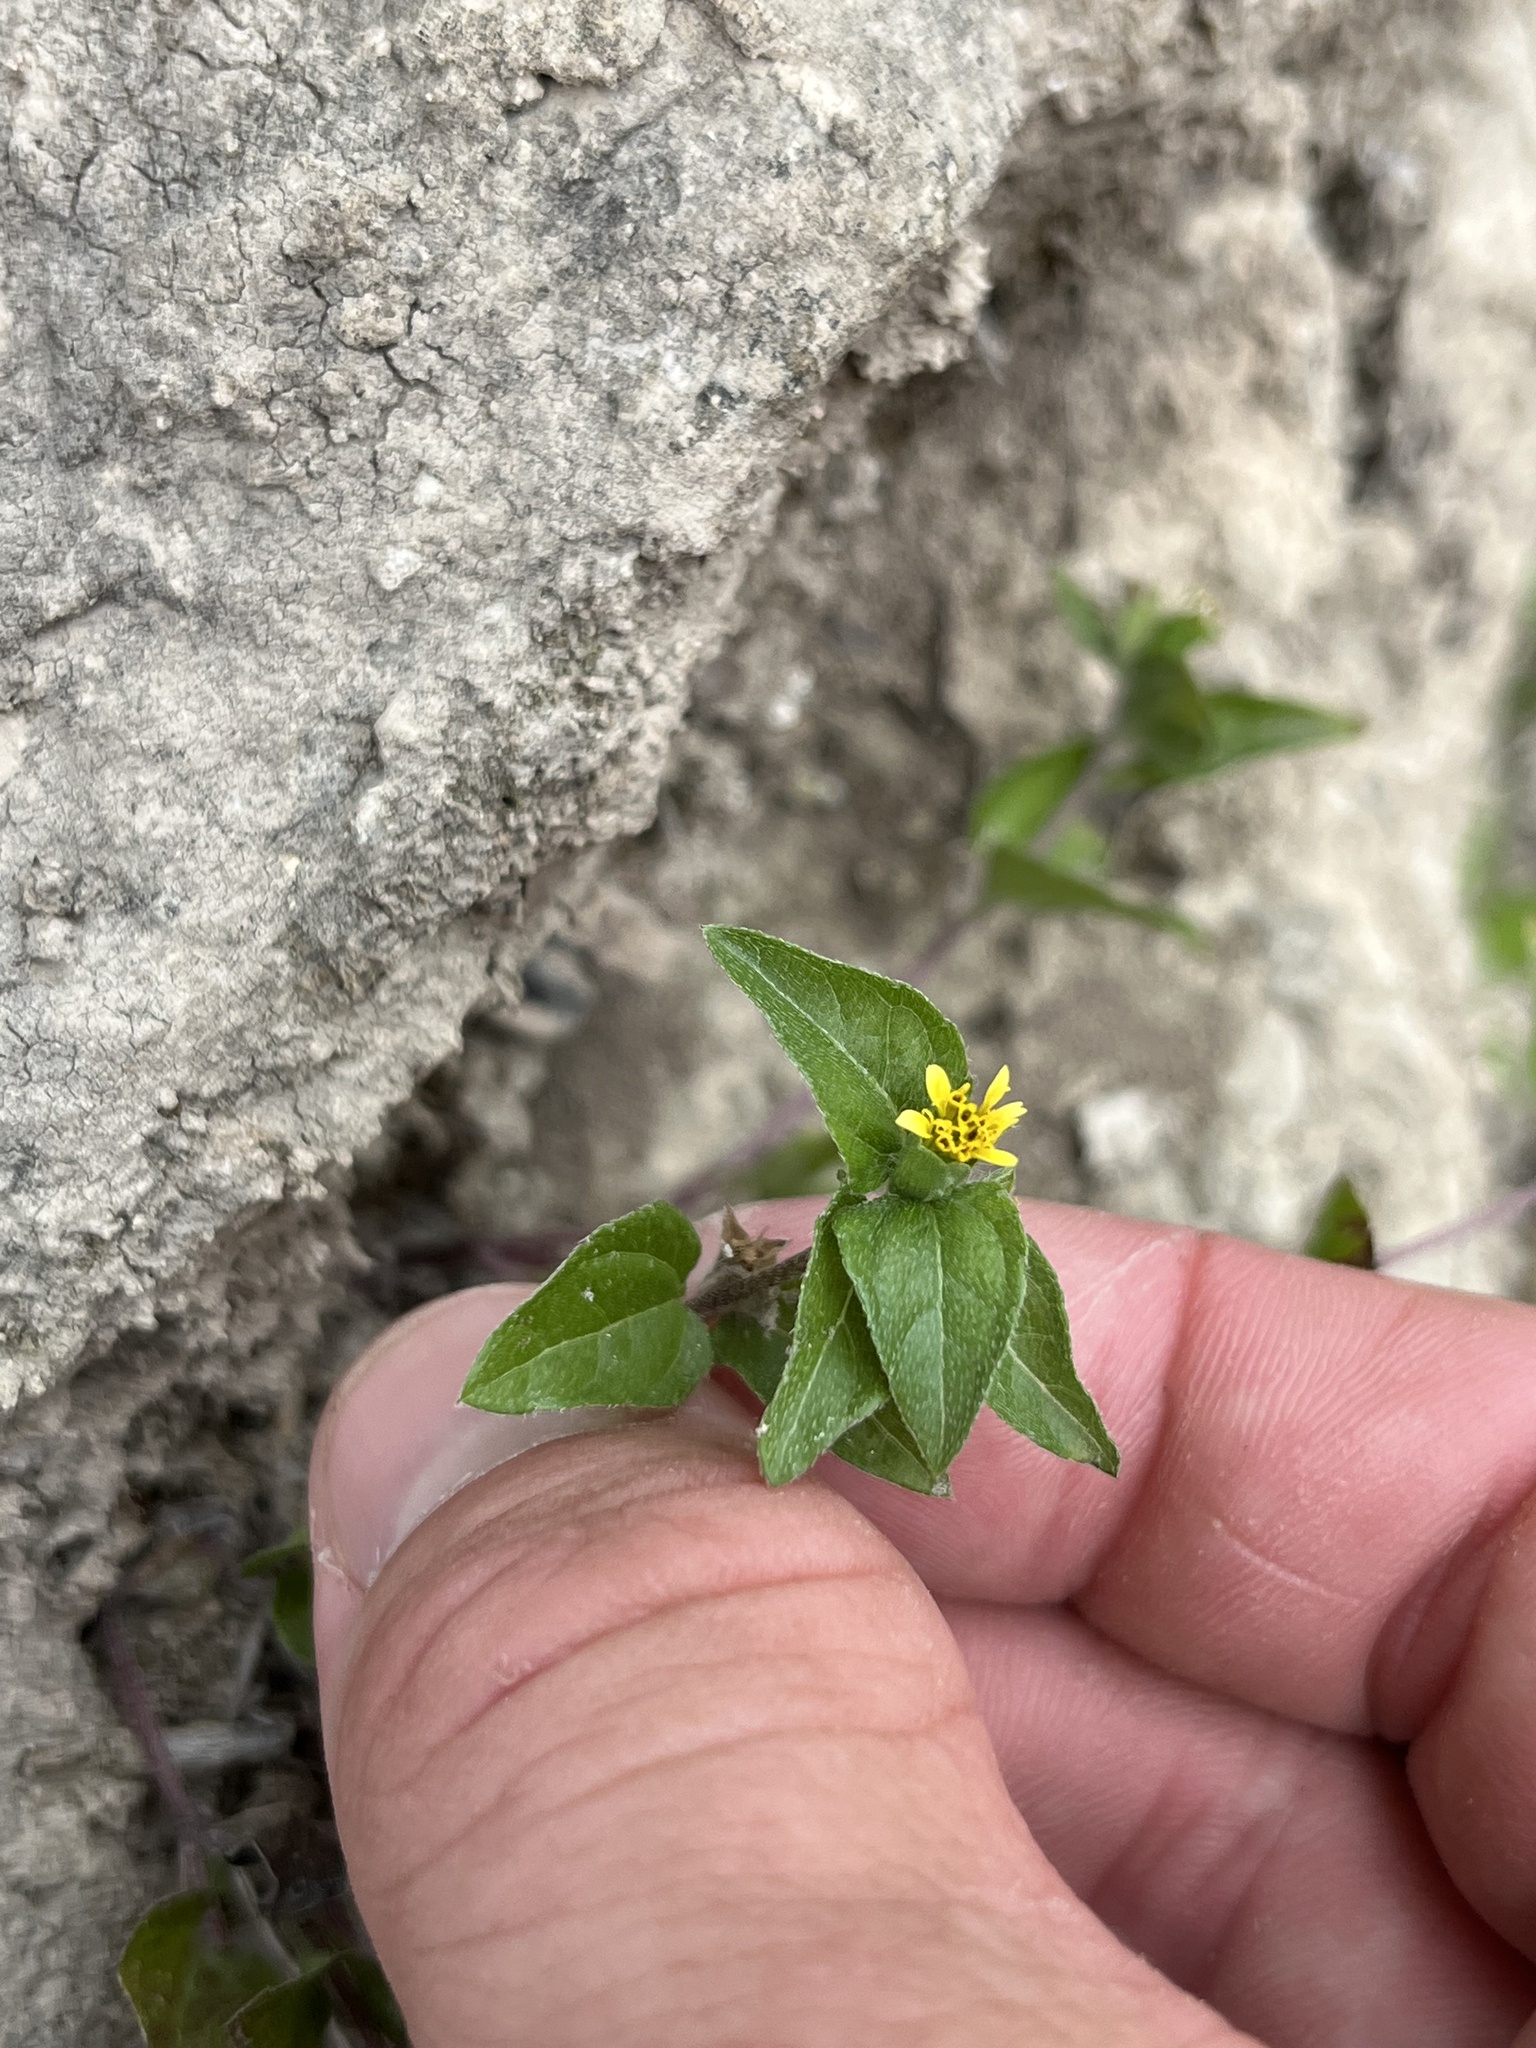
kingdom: Plantae
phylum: Tracheophyta
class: Magnoliopsida
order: Asterales
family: Asteraceae
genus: Calyptocarpus
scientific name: Calyptocarpus vialis
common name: Straggler daisy
